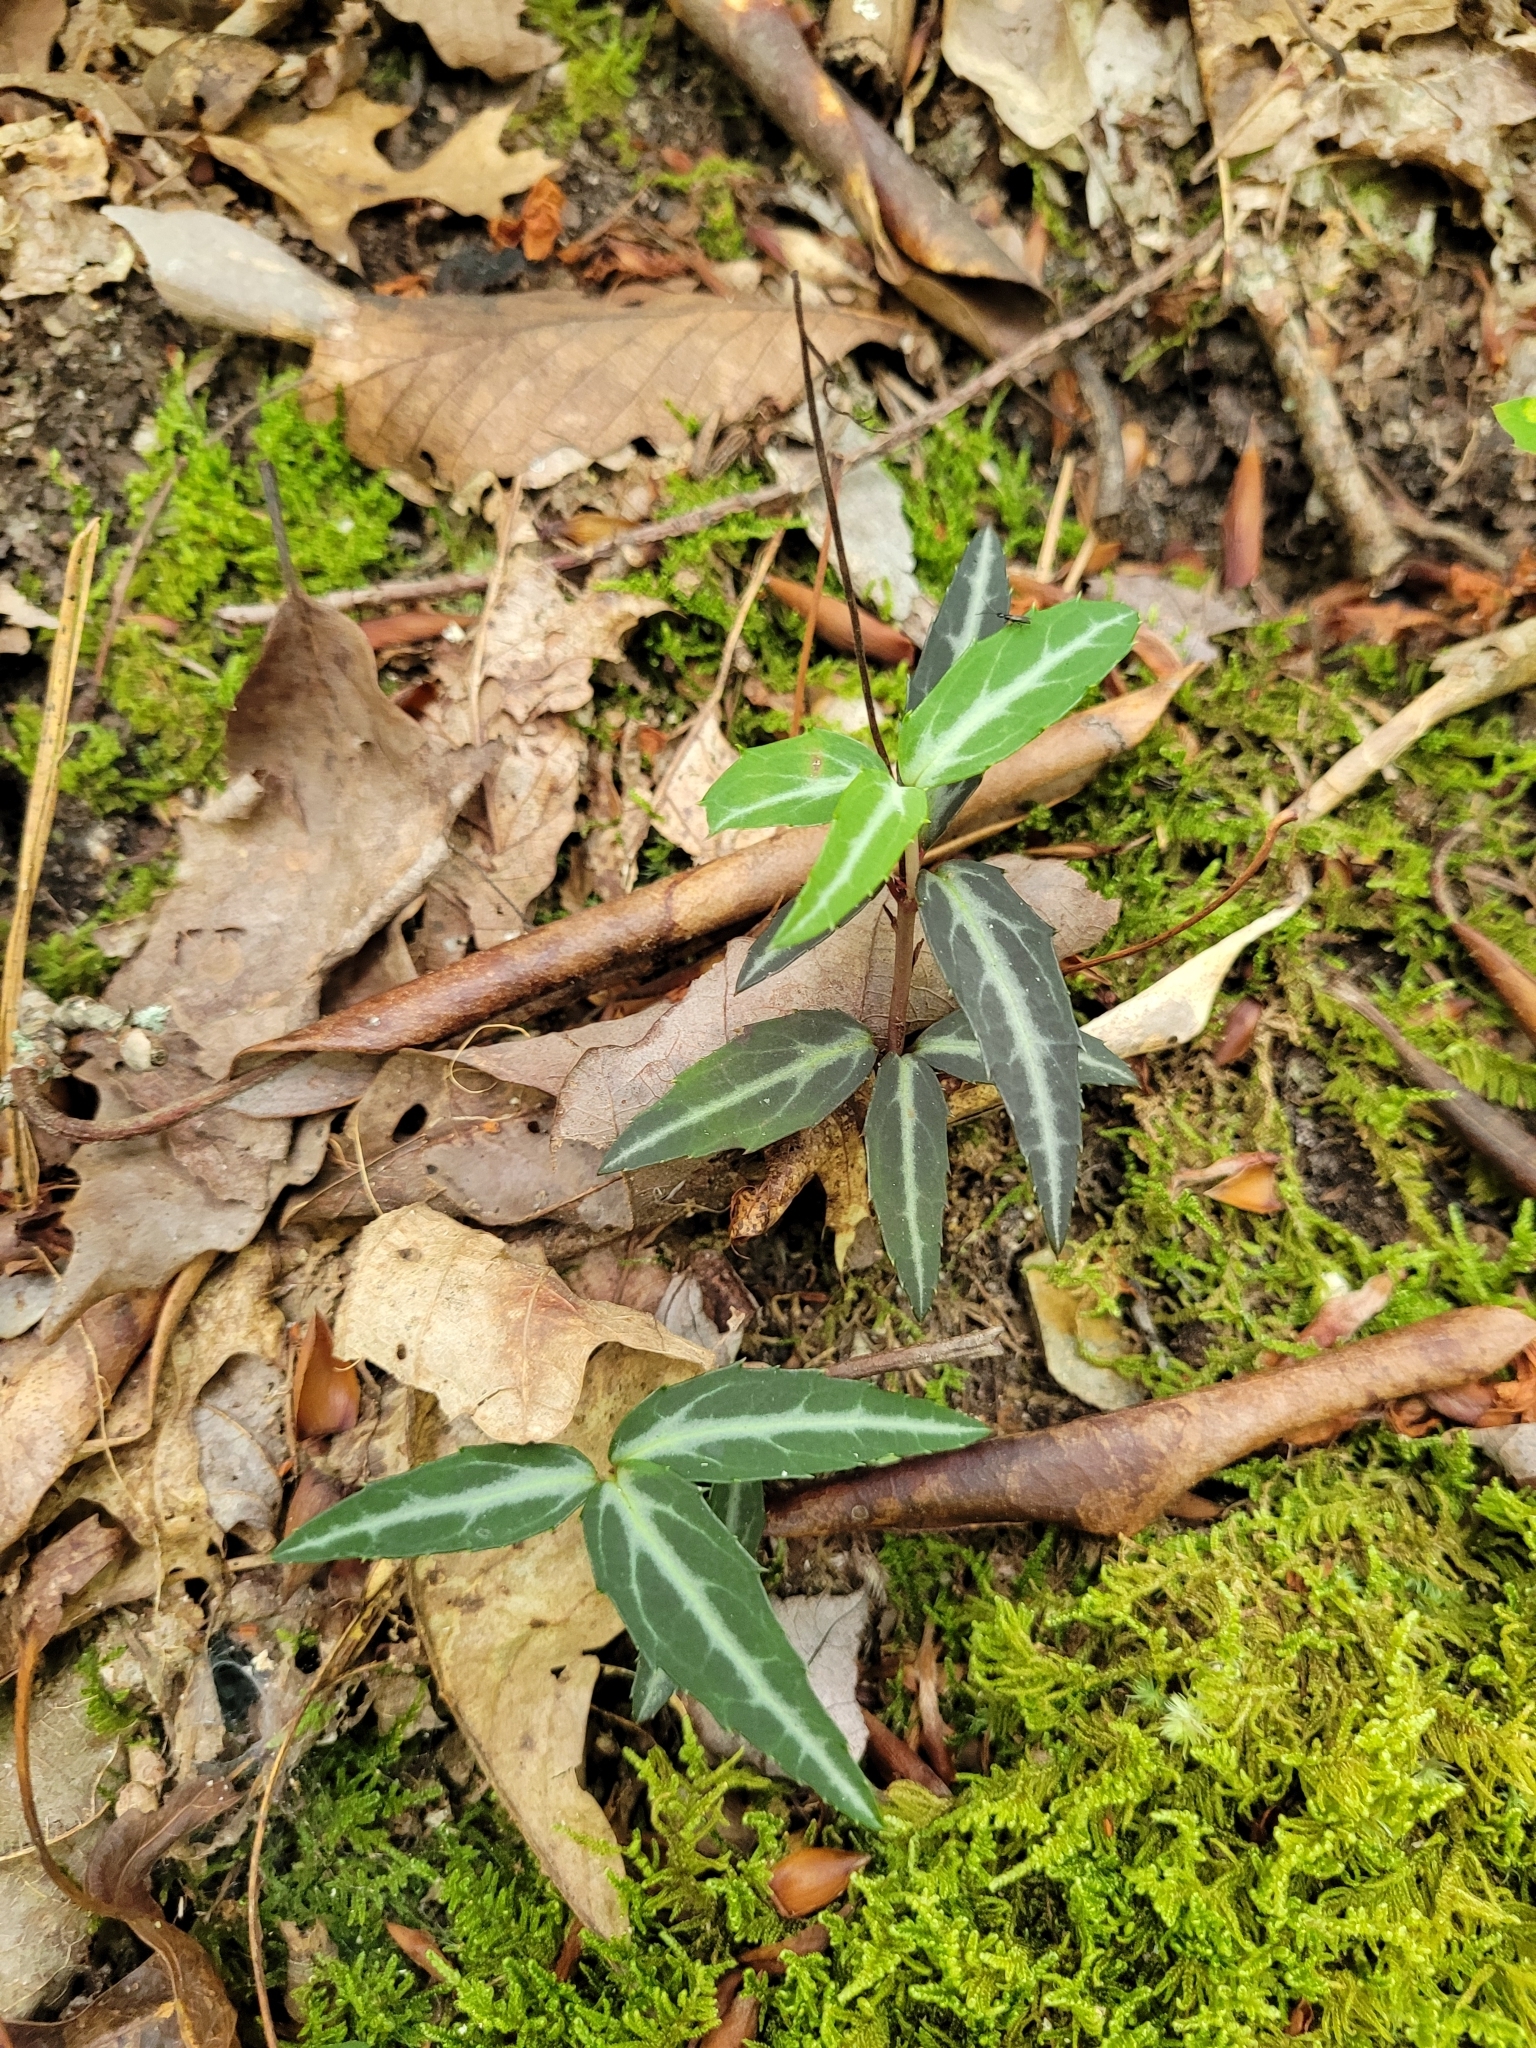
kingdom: Plantae
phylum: Tracheophyta
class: Magnoliopsida
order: Ericales
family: Ericaceae
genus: Chimaphila
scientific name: Chimaphila maculata
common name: Spotted pipsissewa
